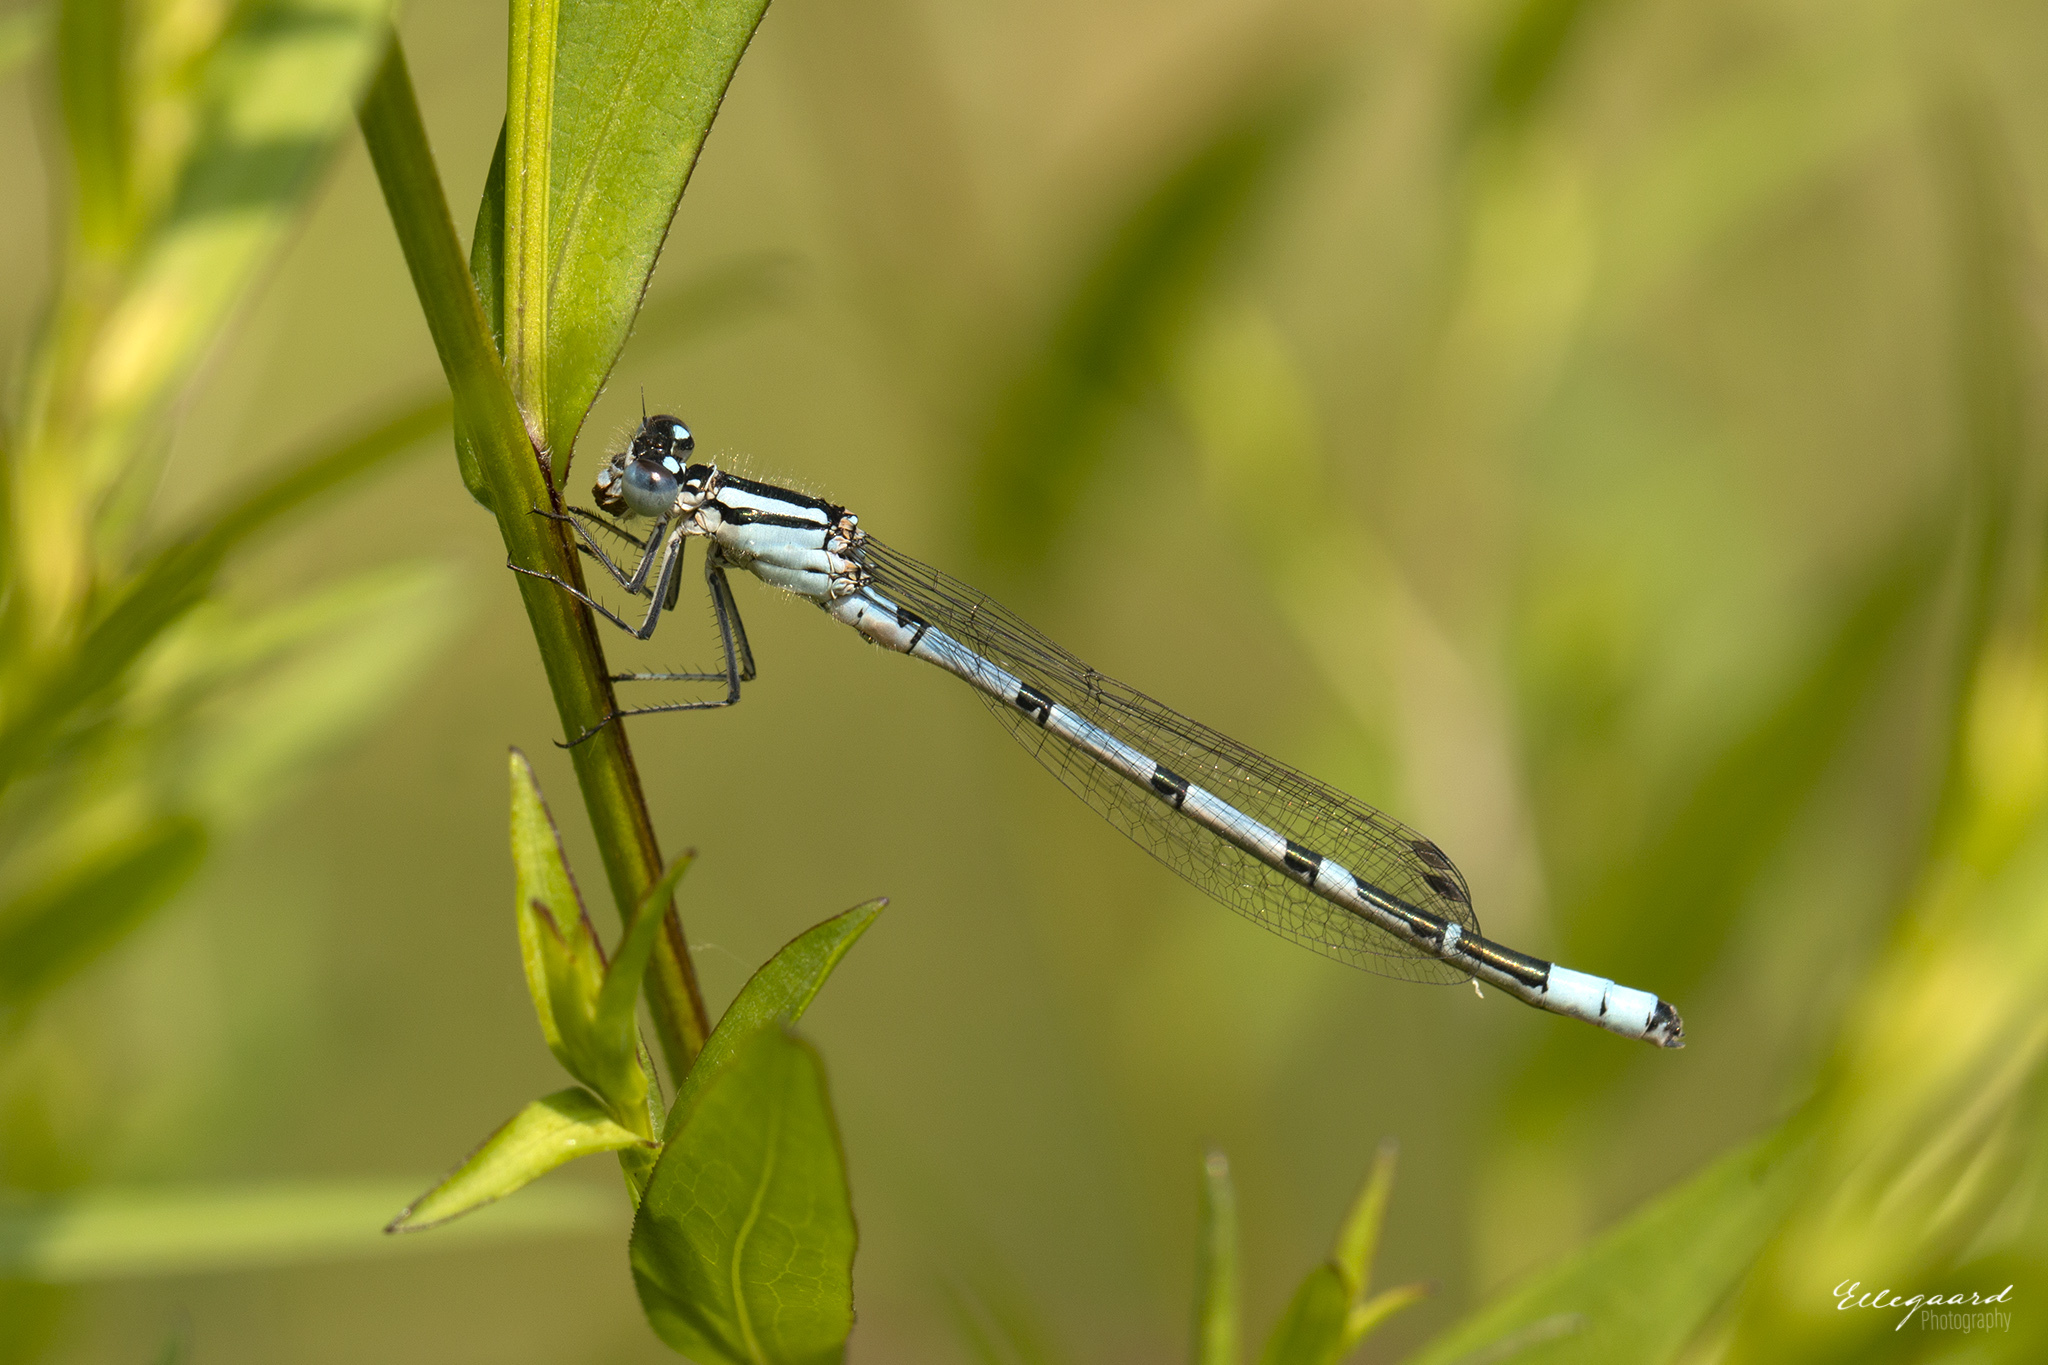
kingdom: Animalia
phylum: Arthropoda
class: Insecta
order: Odonata
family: Coenagrionidae
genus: Enallagma
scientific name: Enallagma cyathigerum
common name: Common blue damselfly
